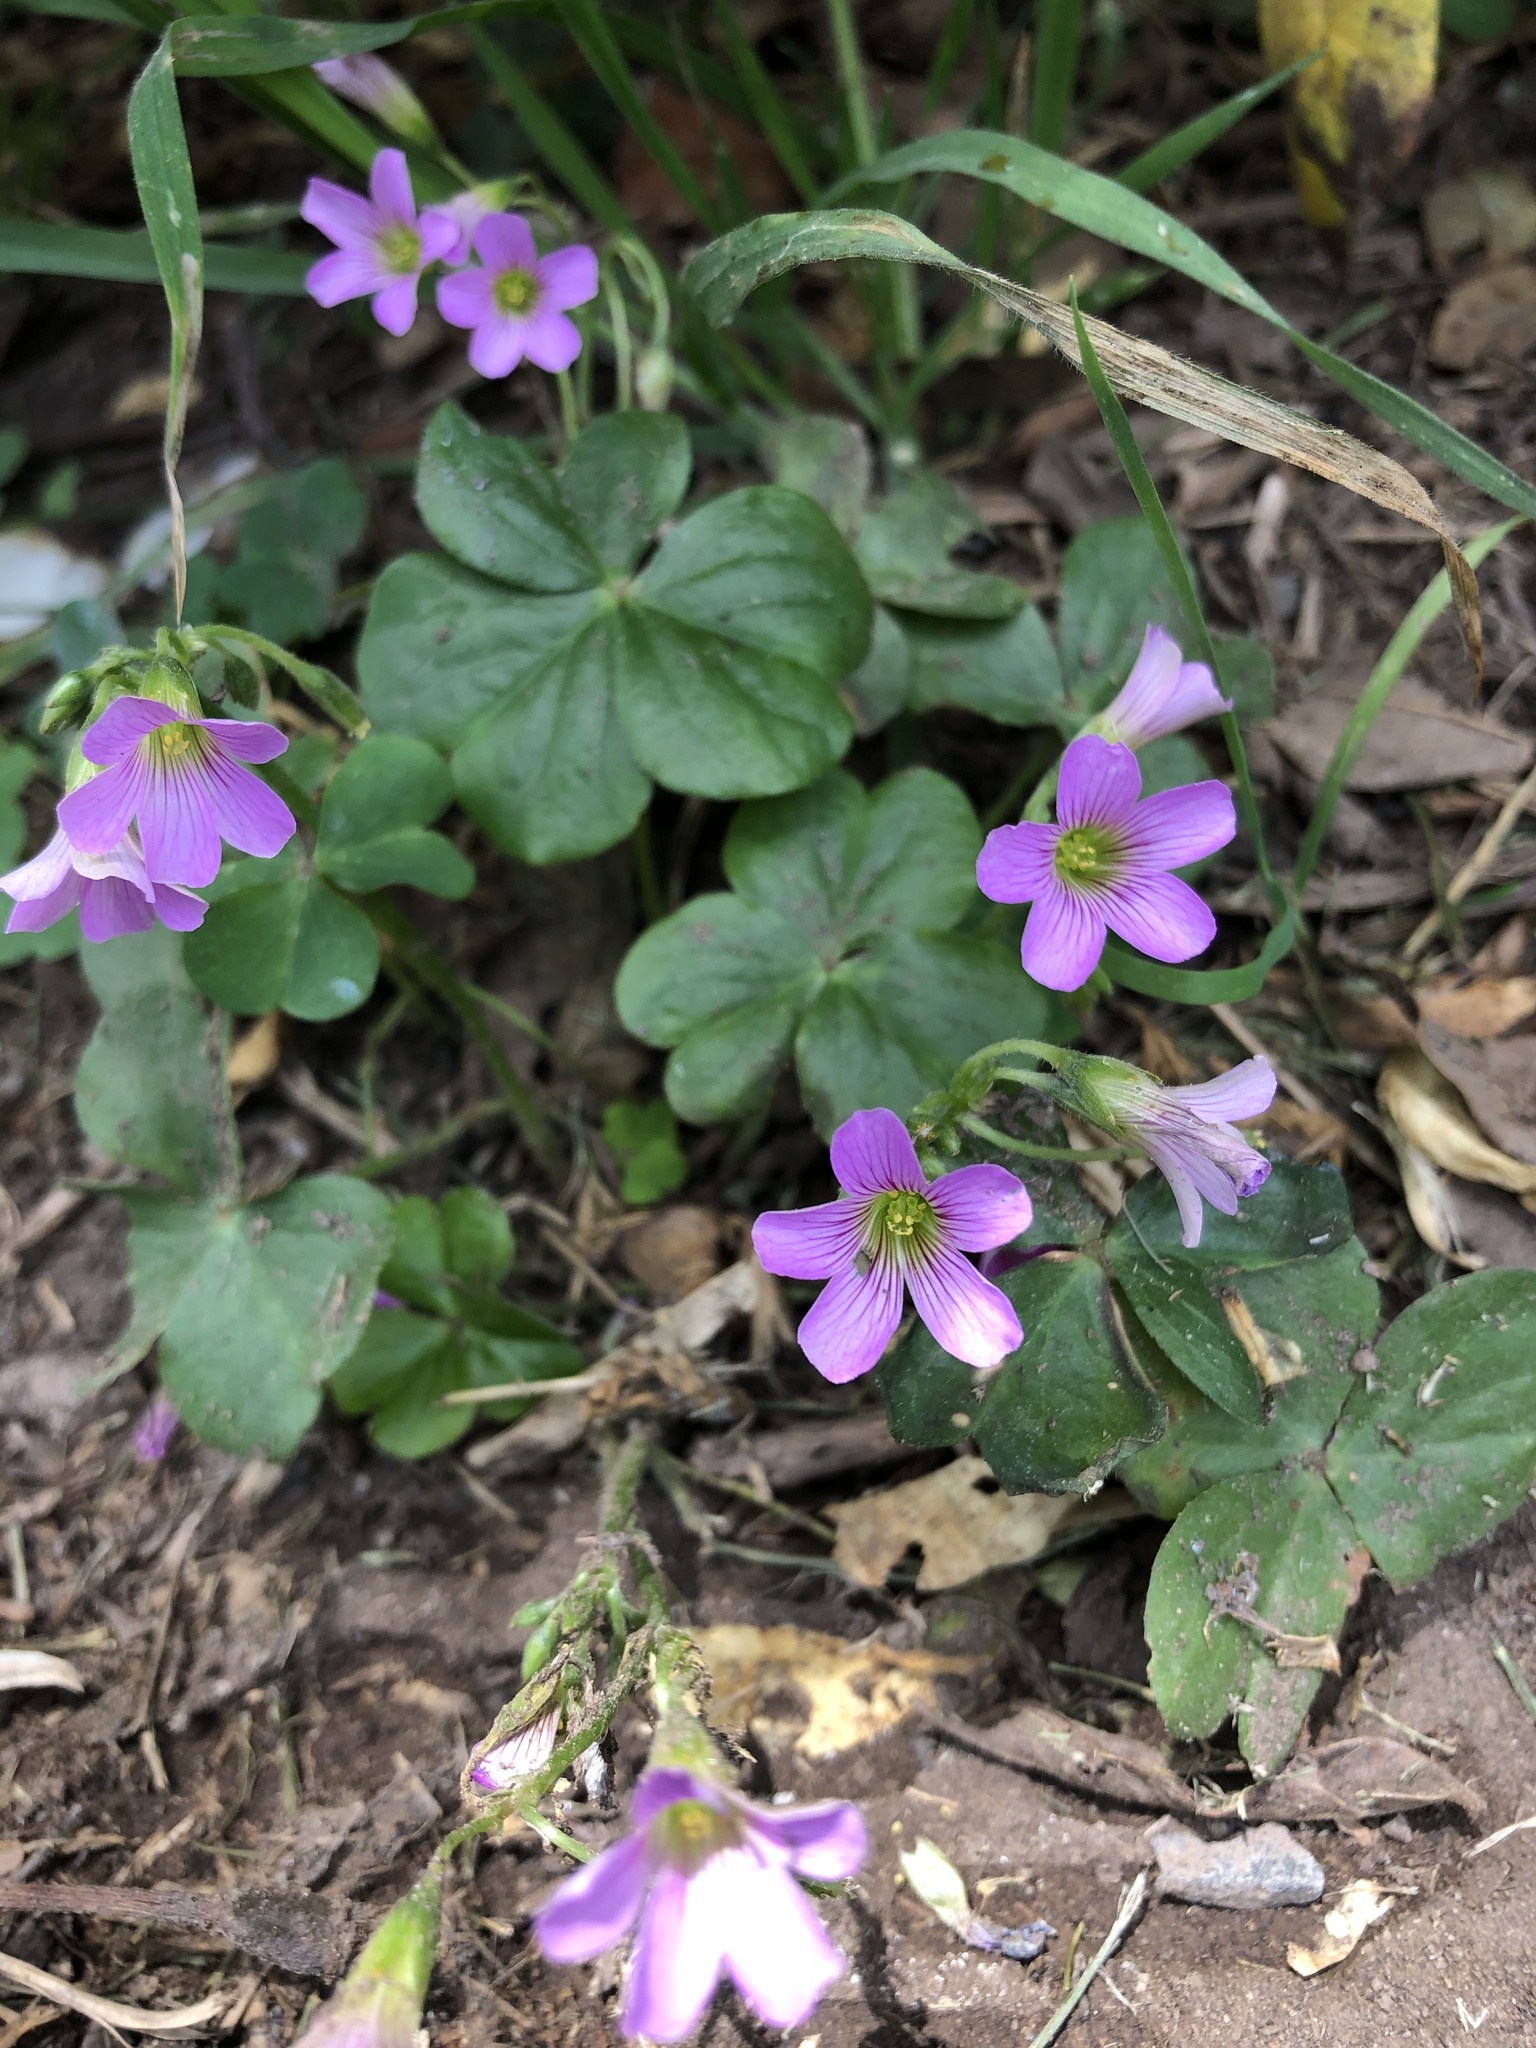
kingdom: Plantae
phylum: Tracheophyta
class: Magnoliopsida
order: Oxalidales
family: Oxalidaceae
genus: Oxalis
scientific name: Oxalis debilis
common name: Large-flowered pink-sorrel
